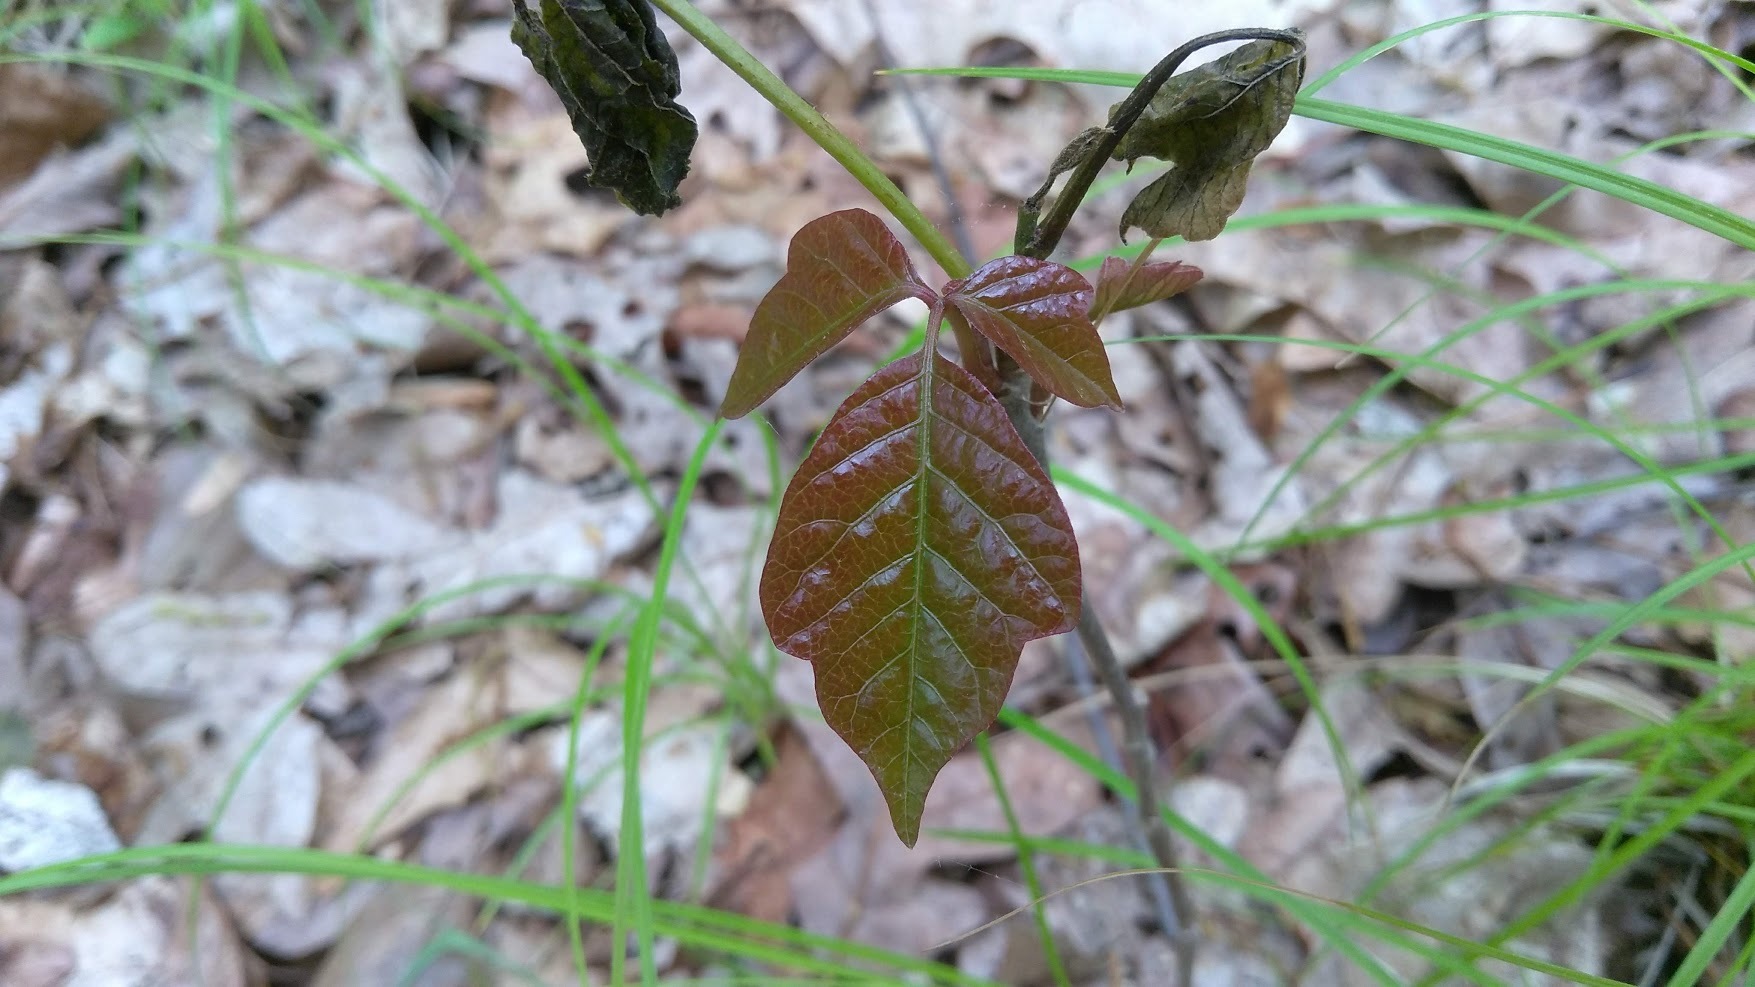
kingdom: Plantae
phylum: Tracheophyta
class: Magnoliopsida
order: Sapindales
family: Anacardiaceae
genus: Toxicodendron
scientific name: Toxicodendron radicans
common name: Poison ivy
